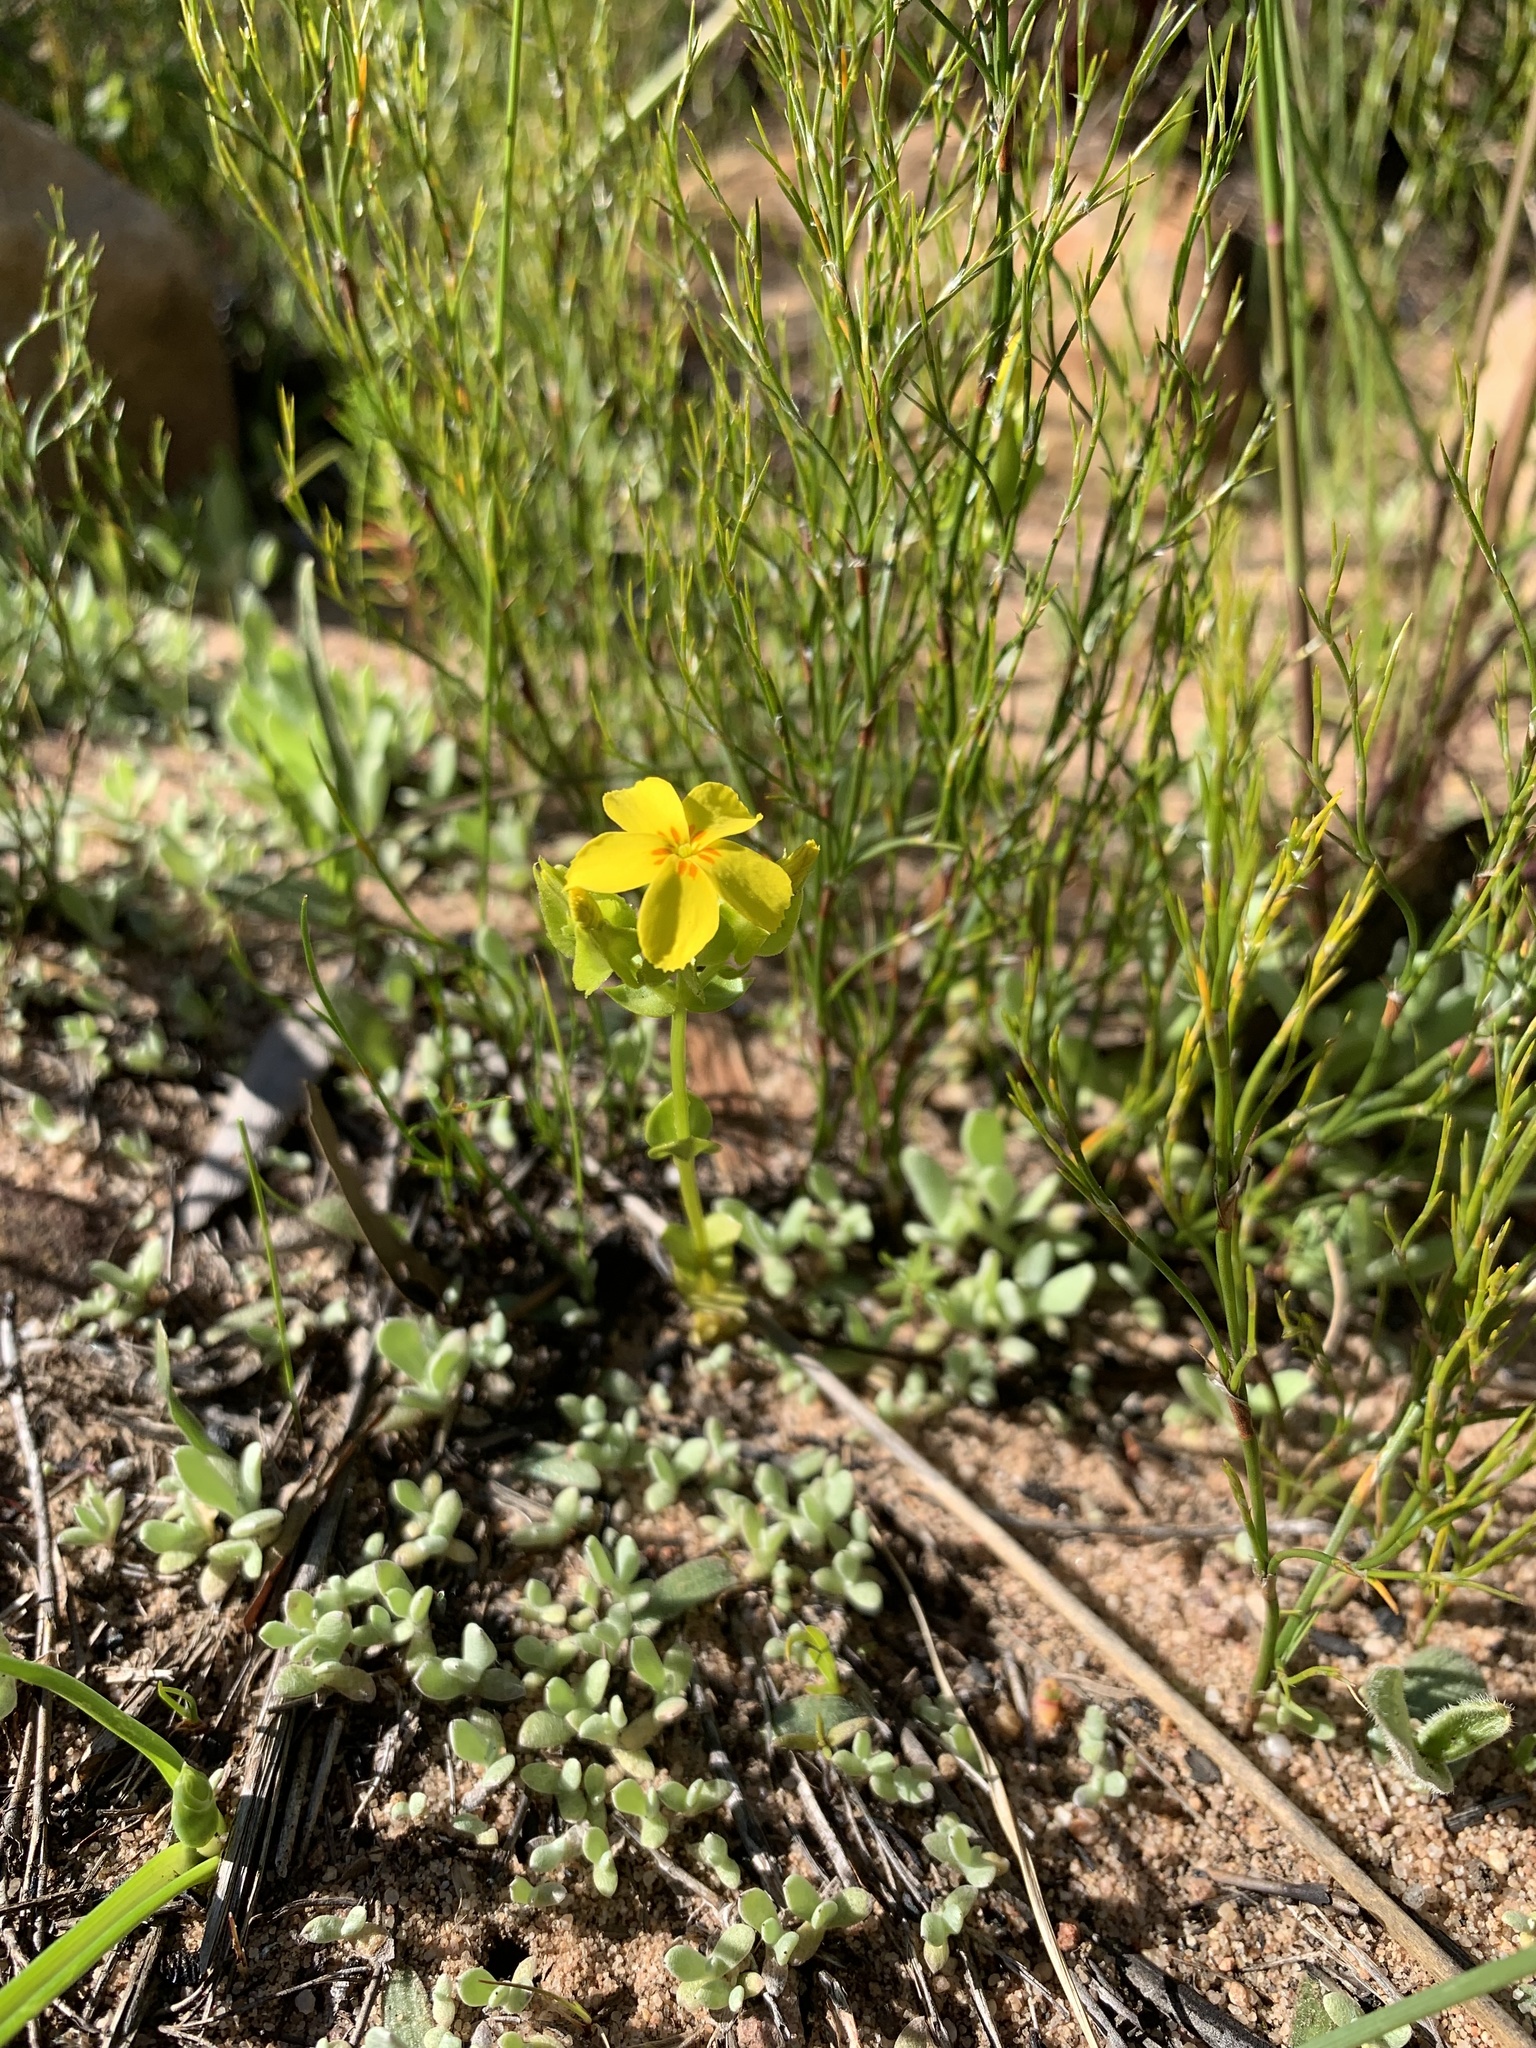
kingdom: Plantae
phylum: Tracheophyta
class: Magnoliopsida
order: Gentianales
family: Gentianaceae
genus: Sebaea
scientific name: Sebaea exacoides
